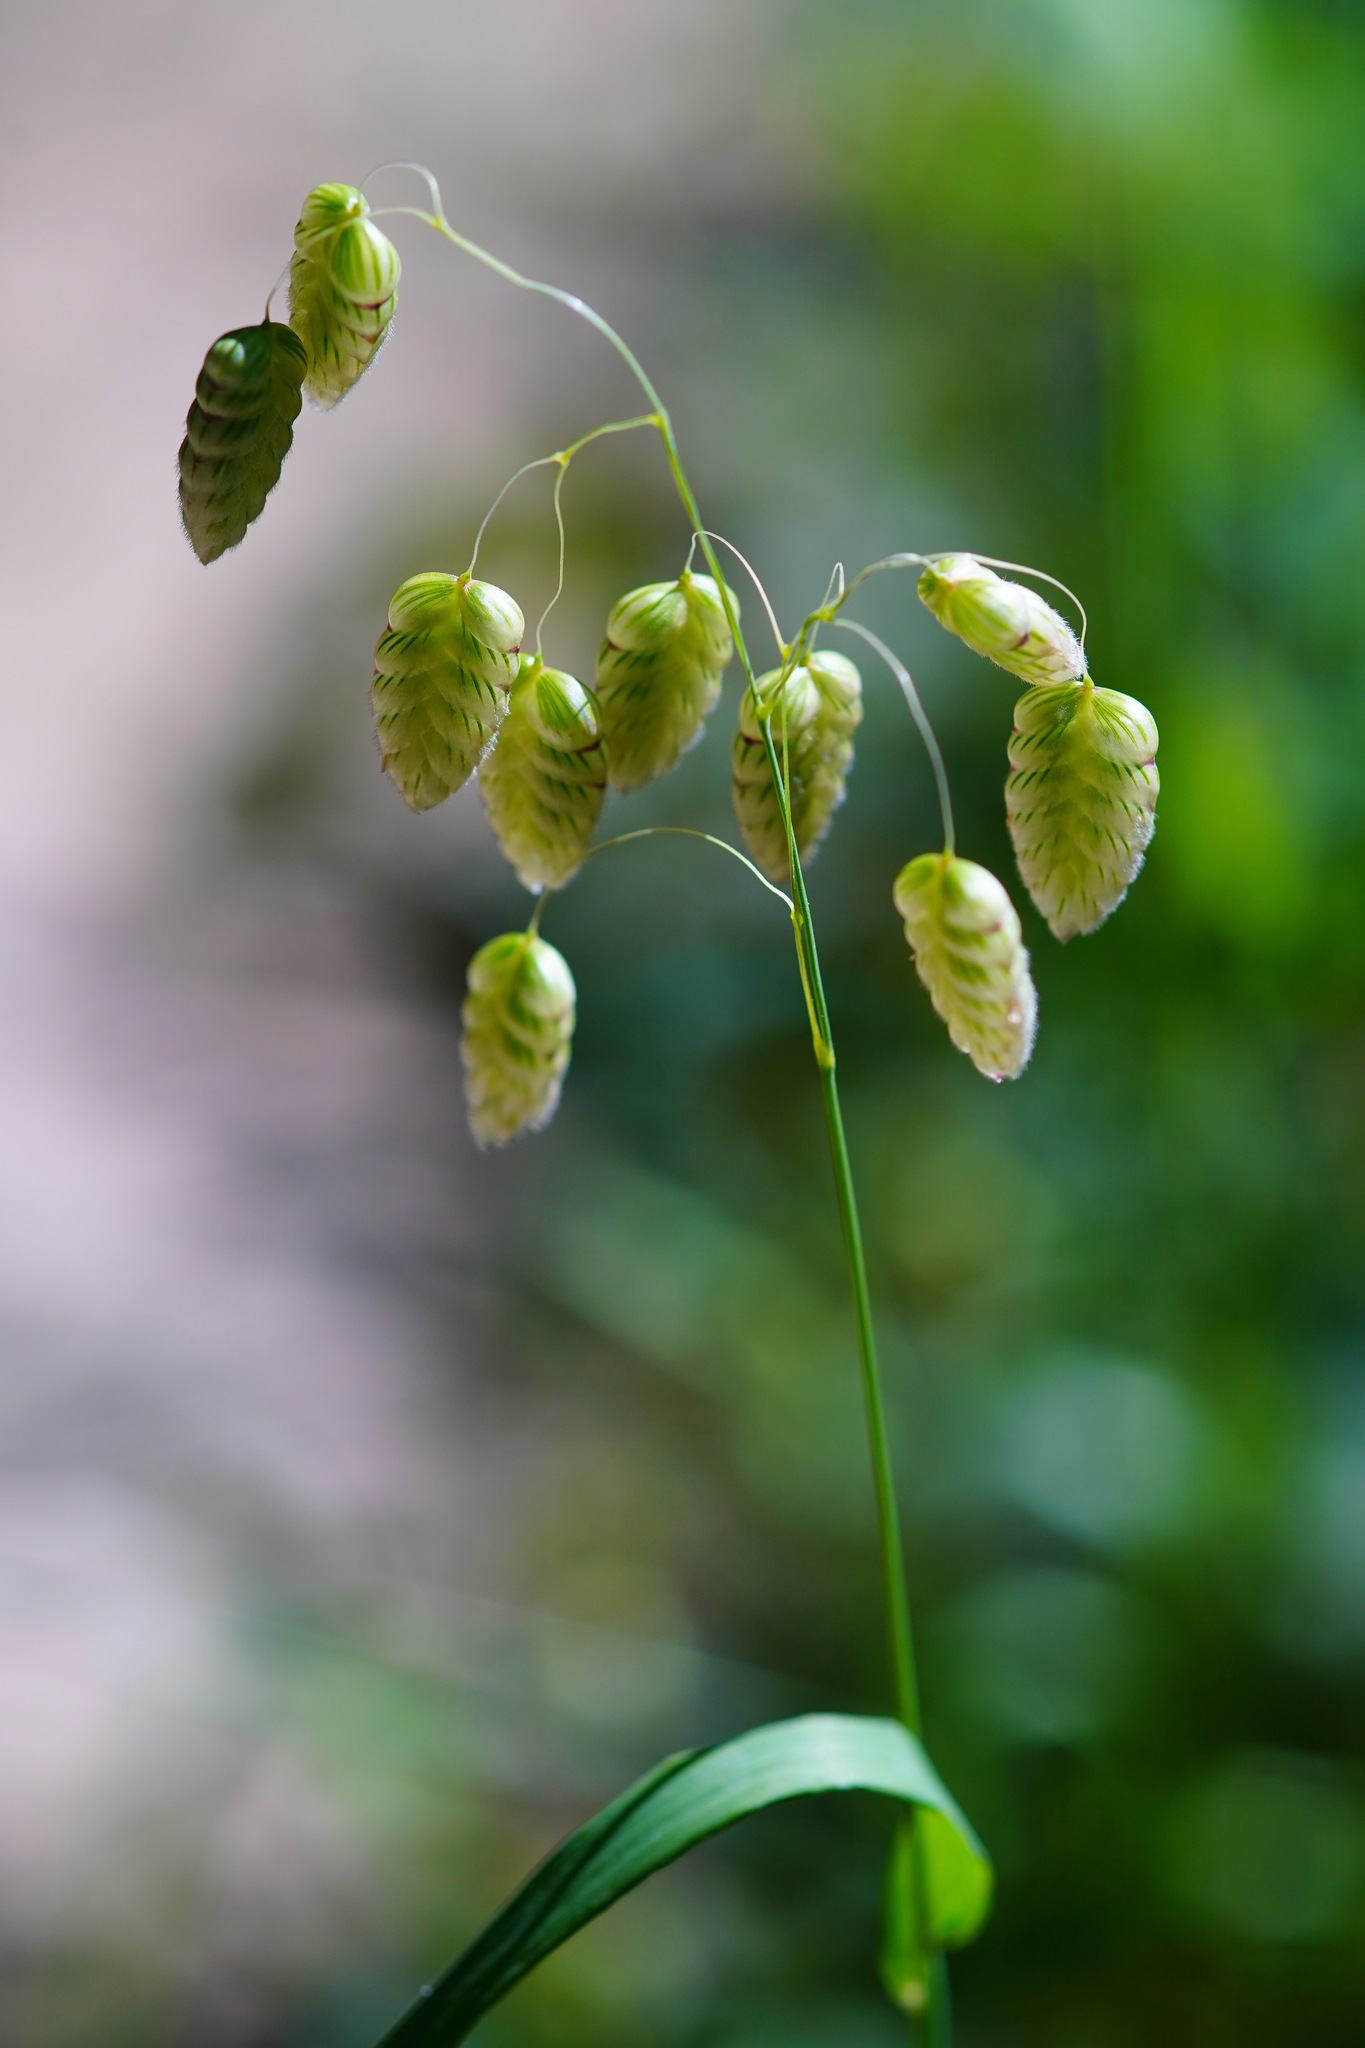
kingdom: Plantae
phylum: Tracheophyta
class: Liliopsida
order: Poales
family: Poaceae
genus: Briza
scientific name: Briza maxima
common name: Big quakinggrass
